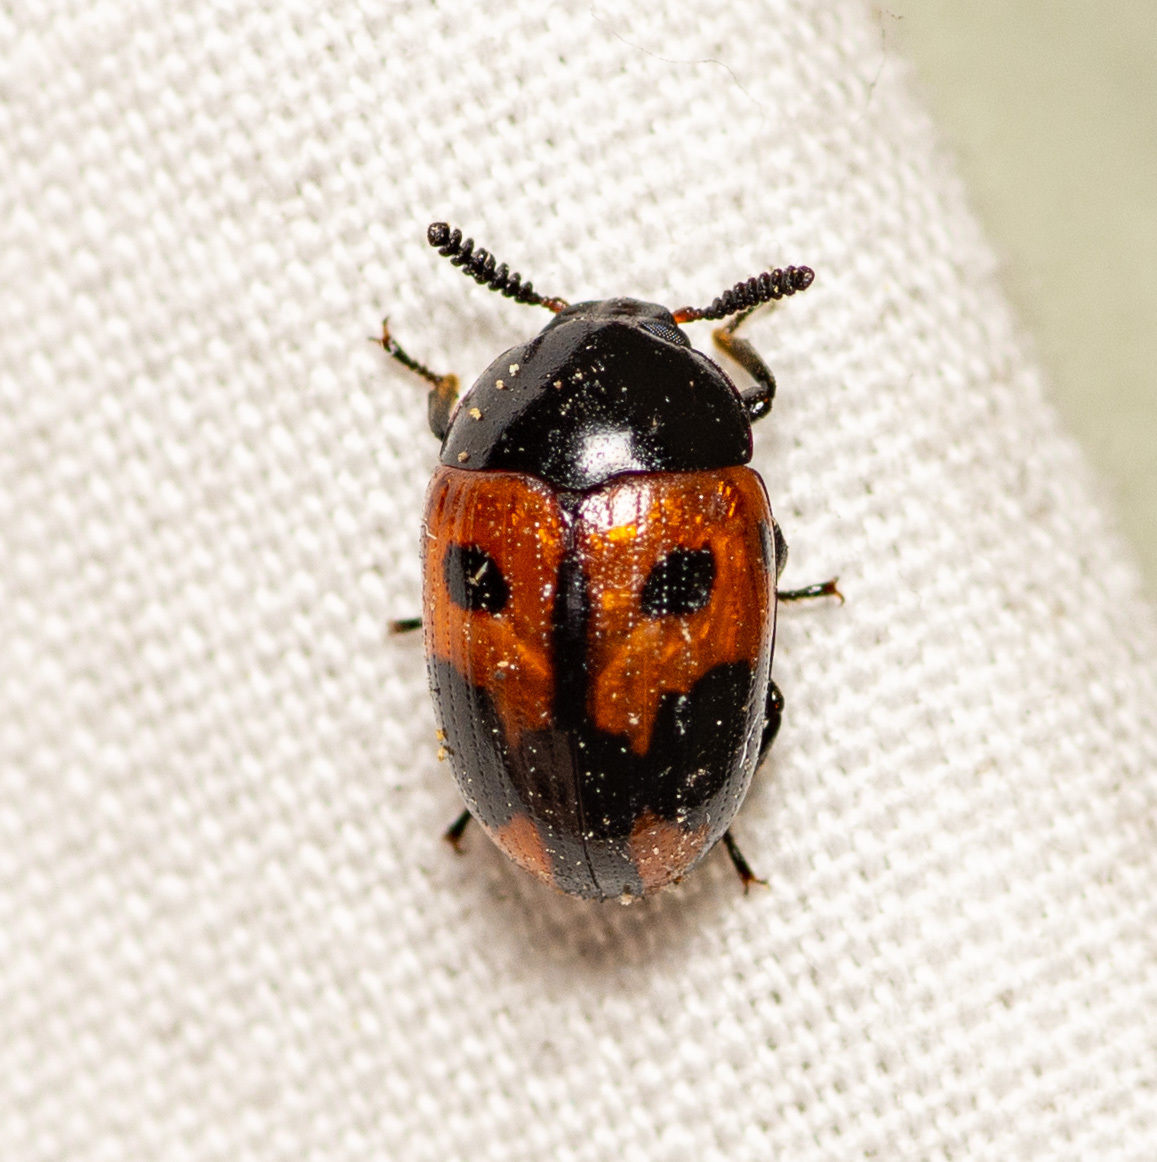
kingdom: Animalia
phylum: Arthropoda
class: Insecta
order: Coleoptera
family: Tenebrionidae
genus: Diaperis
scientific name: Diaperis maculata
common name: Darkling beetle
